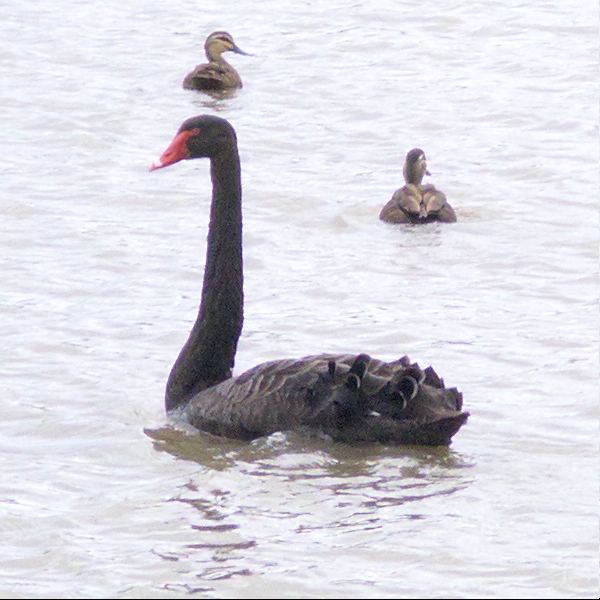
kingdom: Animalia
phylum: Chordata
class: Aves
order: Anseriformes
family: Anatidae
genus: Cygnus
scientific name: Cygnus atratus
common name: Black swan
